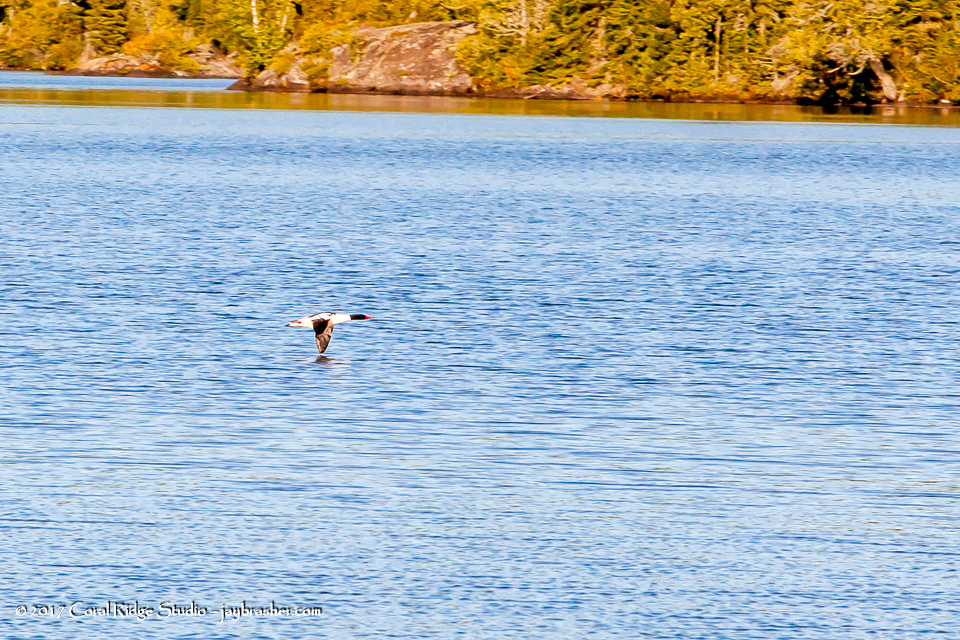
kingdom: Animalia
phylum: Chordata
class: Aves
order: Anseriformes
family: Anatidae
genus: Mergus
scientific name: Mergus merganser
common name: Common merganser
